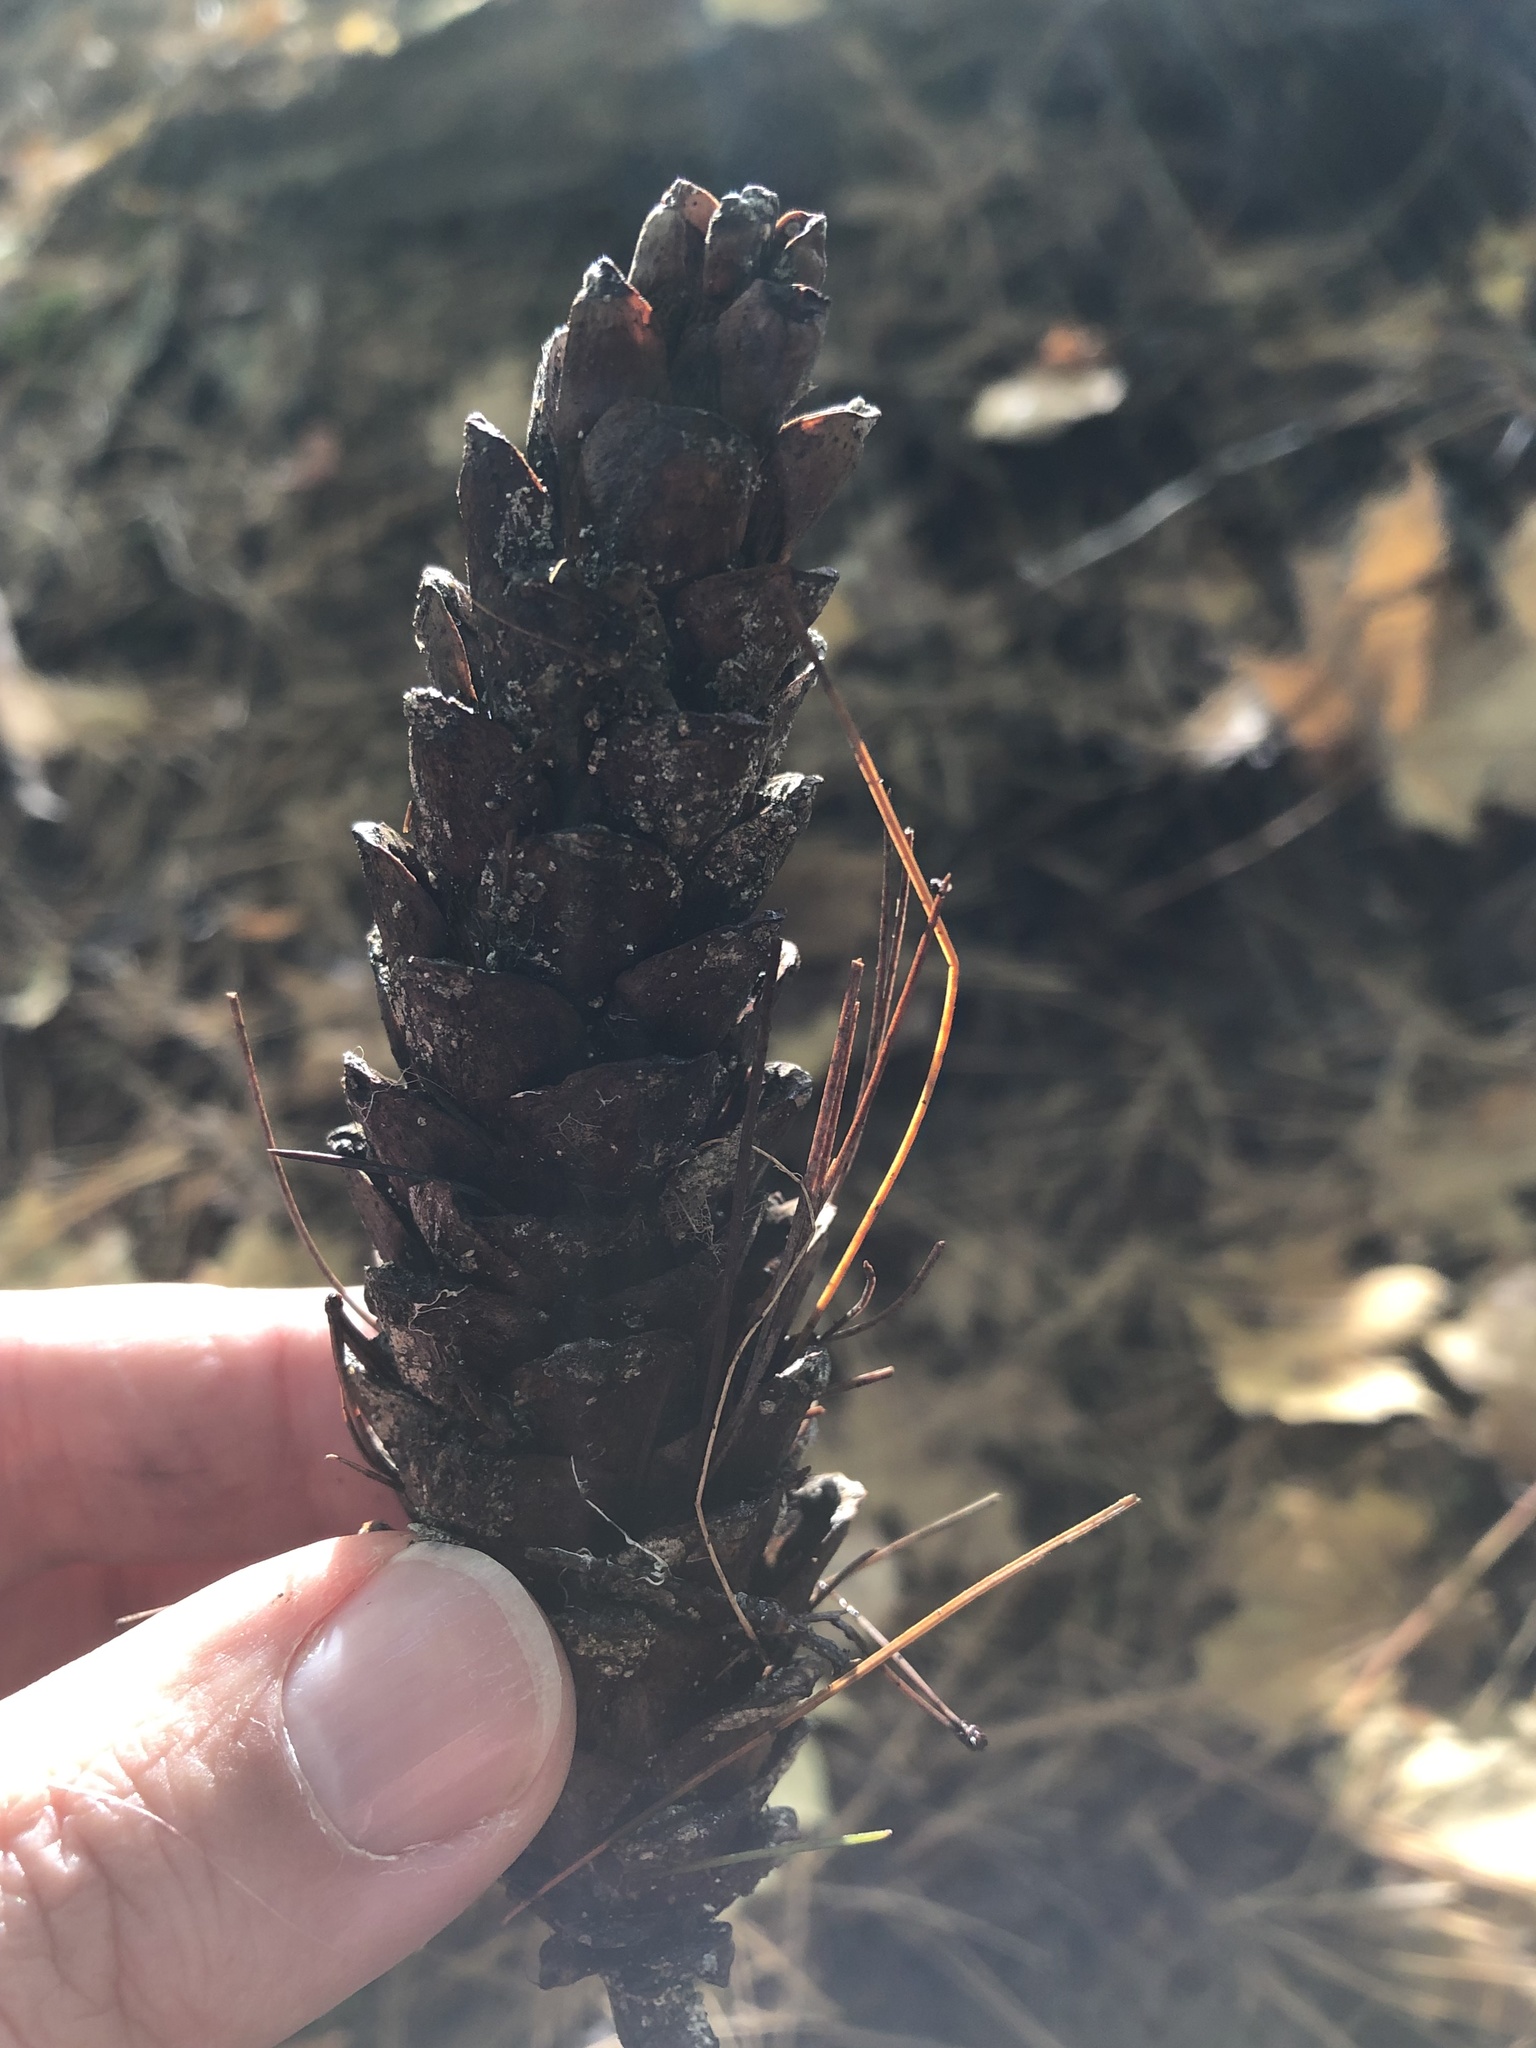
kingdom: Plantae
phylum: Tracheophyta
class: Pinopsida
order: Pinales
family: Pinaceae
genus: Pinus
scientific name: Pinus strobus
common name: Weymouth pine
